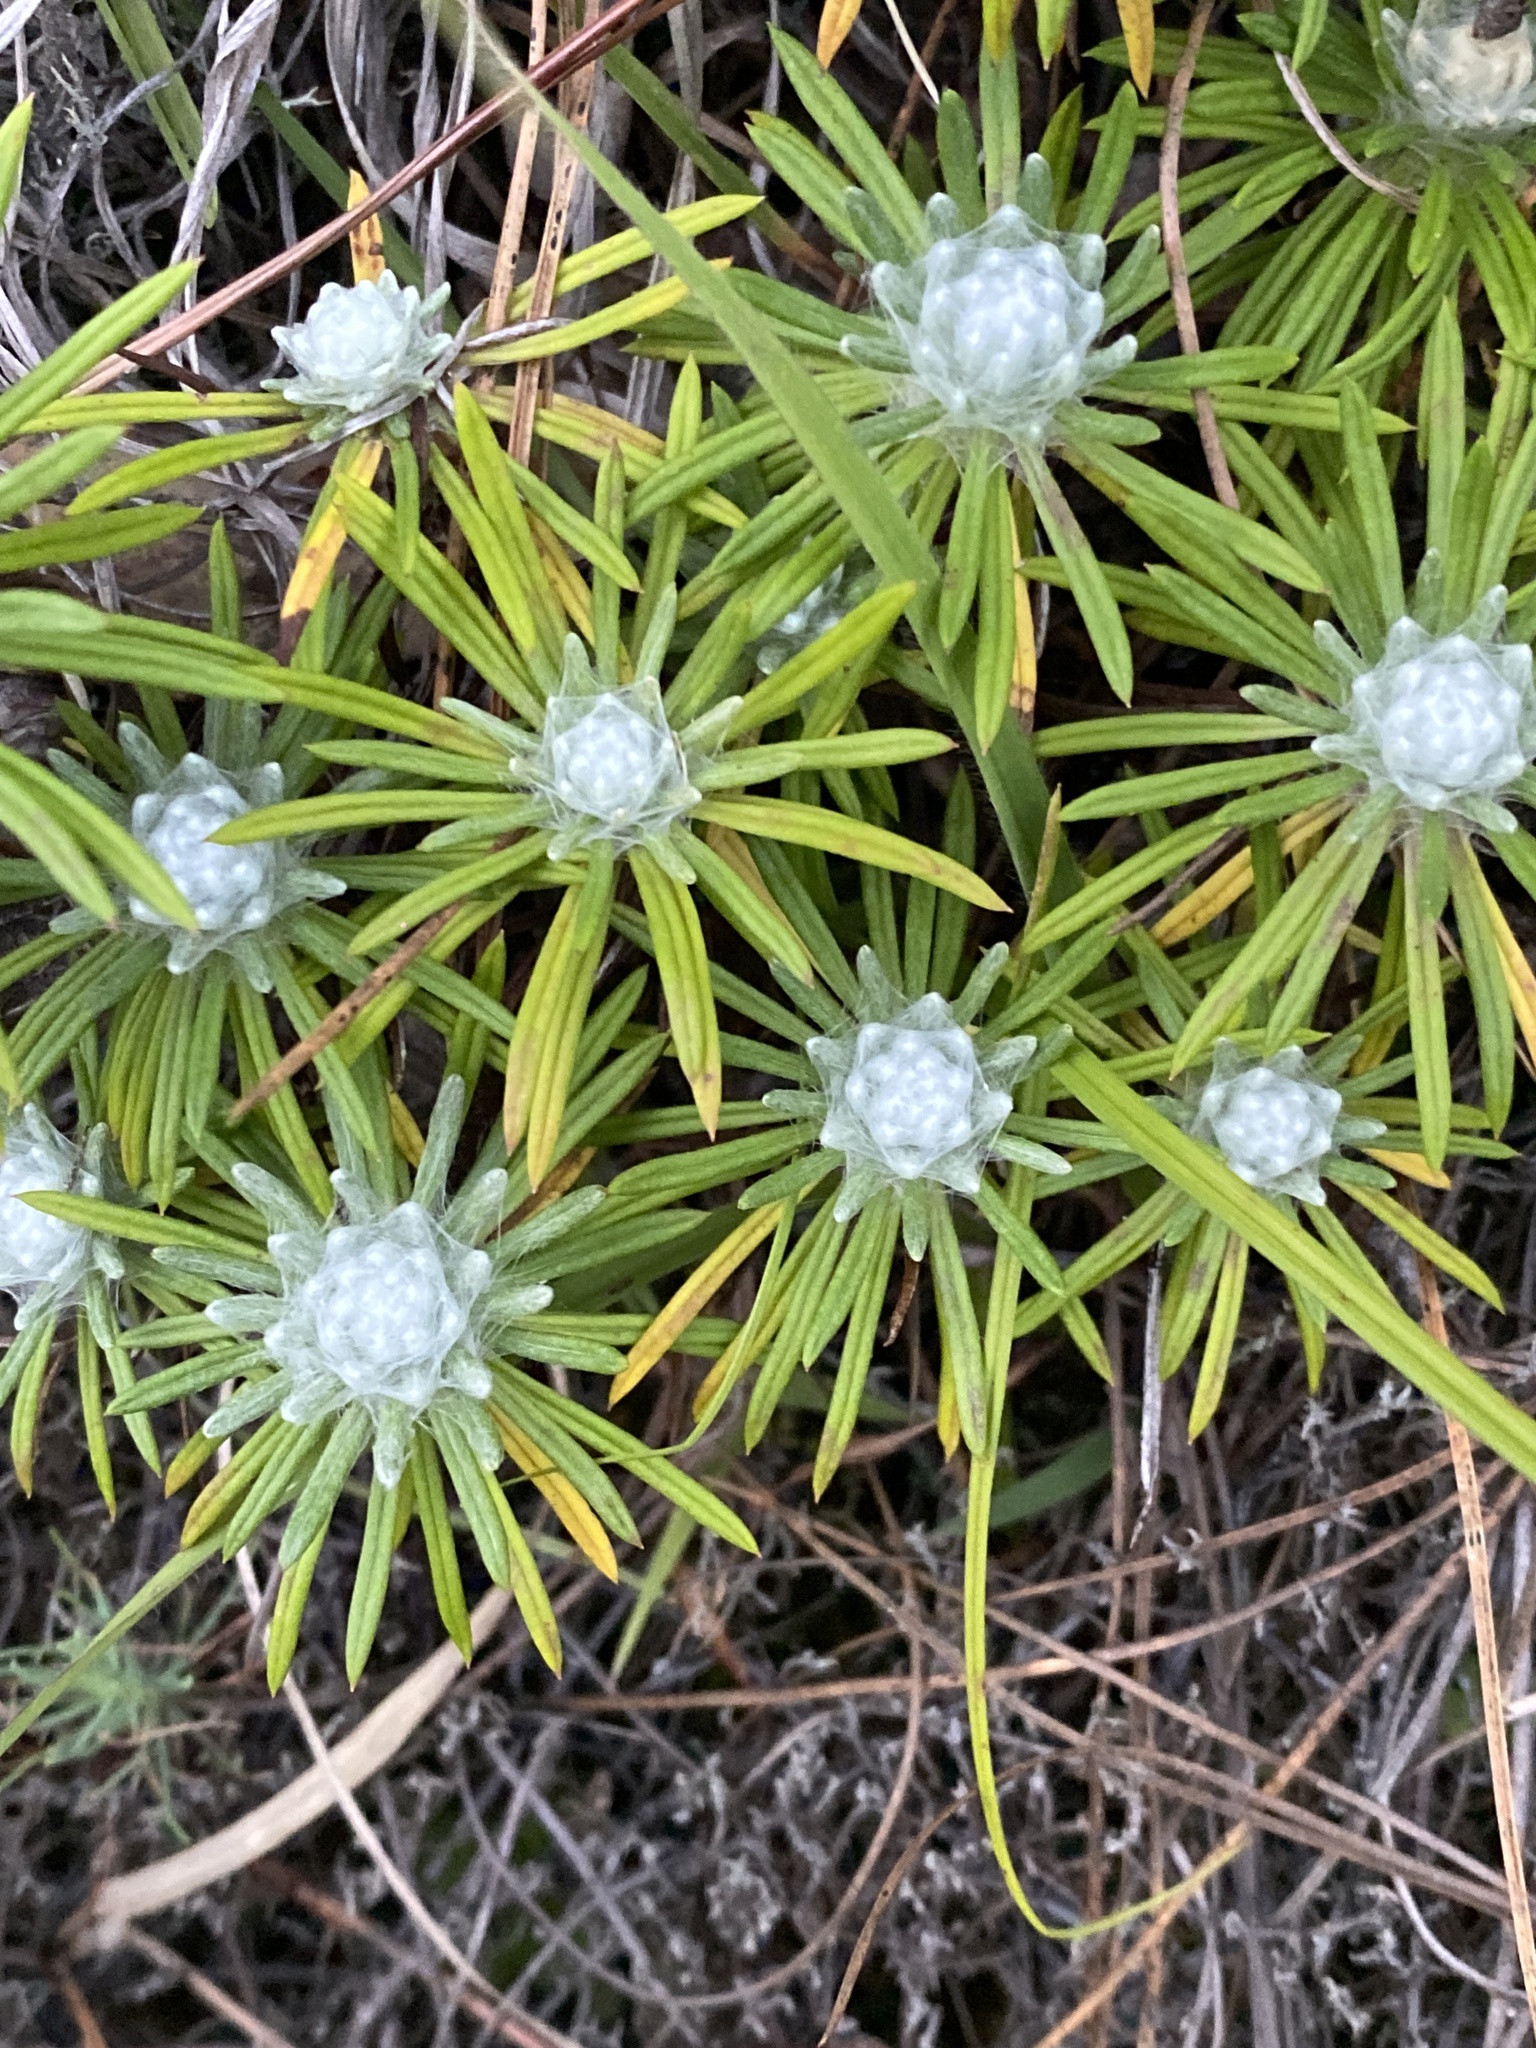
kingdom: Plantae
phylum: Tracheophyta
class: Magnoliopsida
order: Asterales
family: Asteraceae
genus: Leontopodium
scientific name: Leontopodium andersonii
